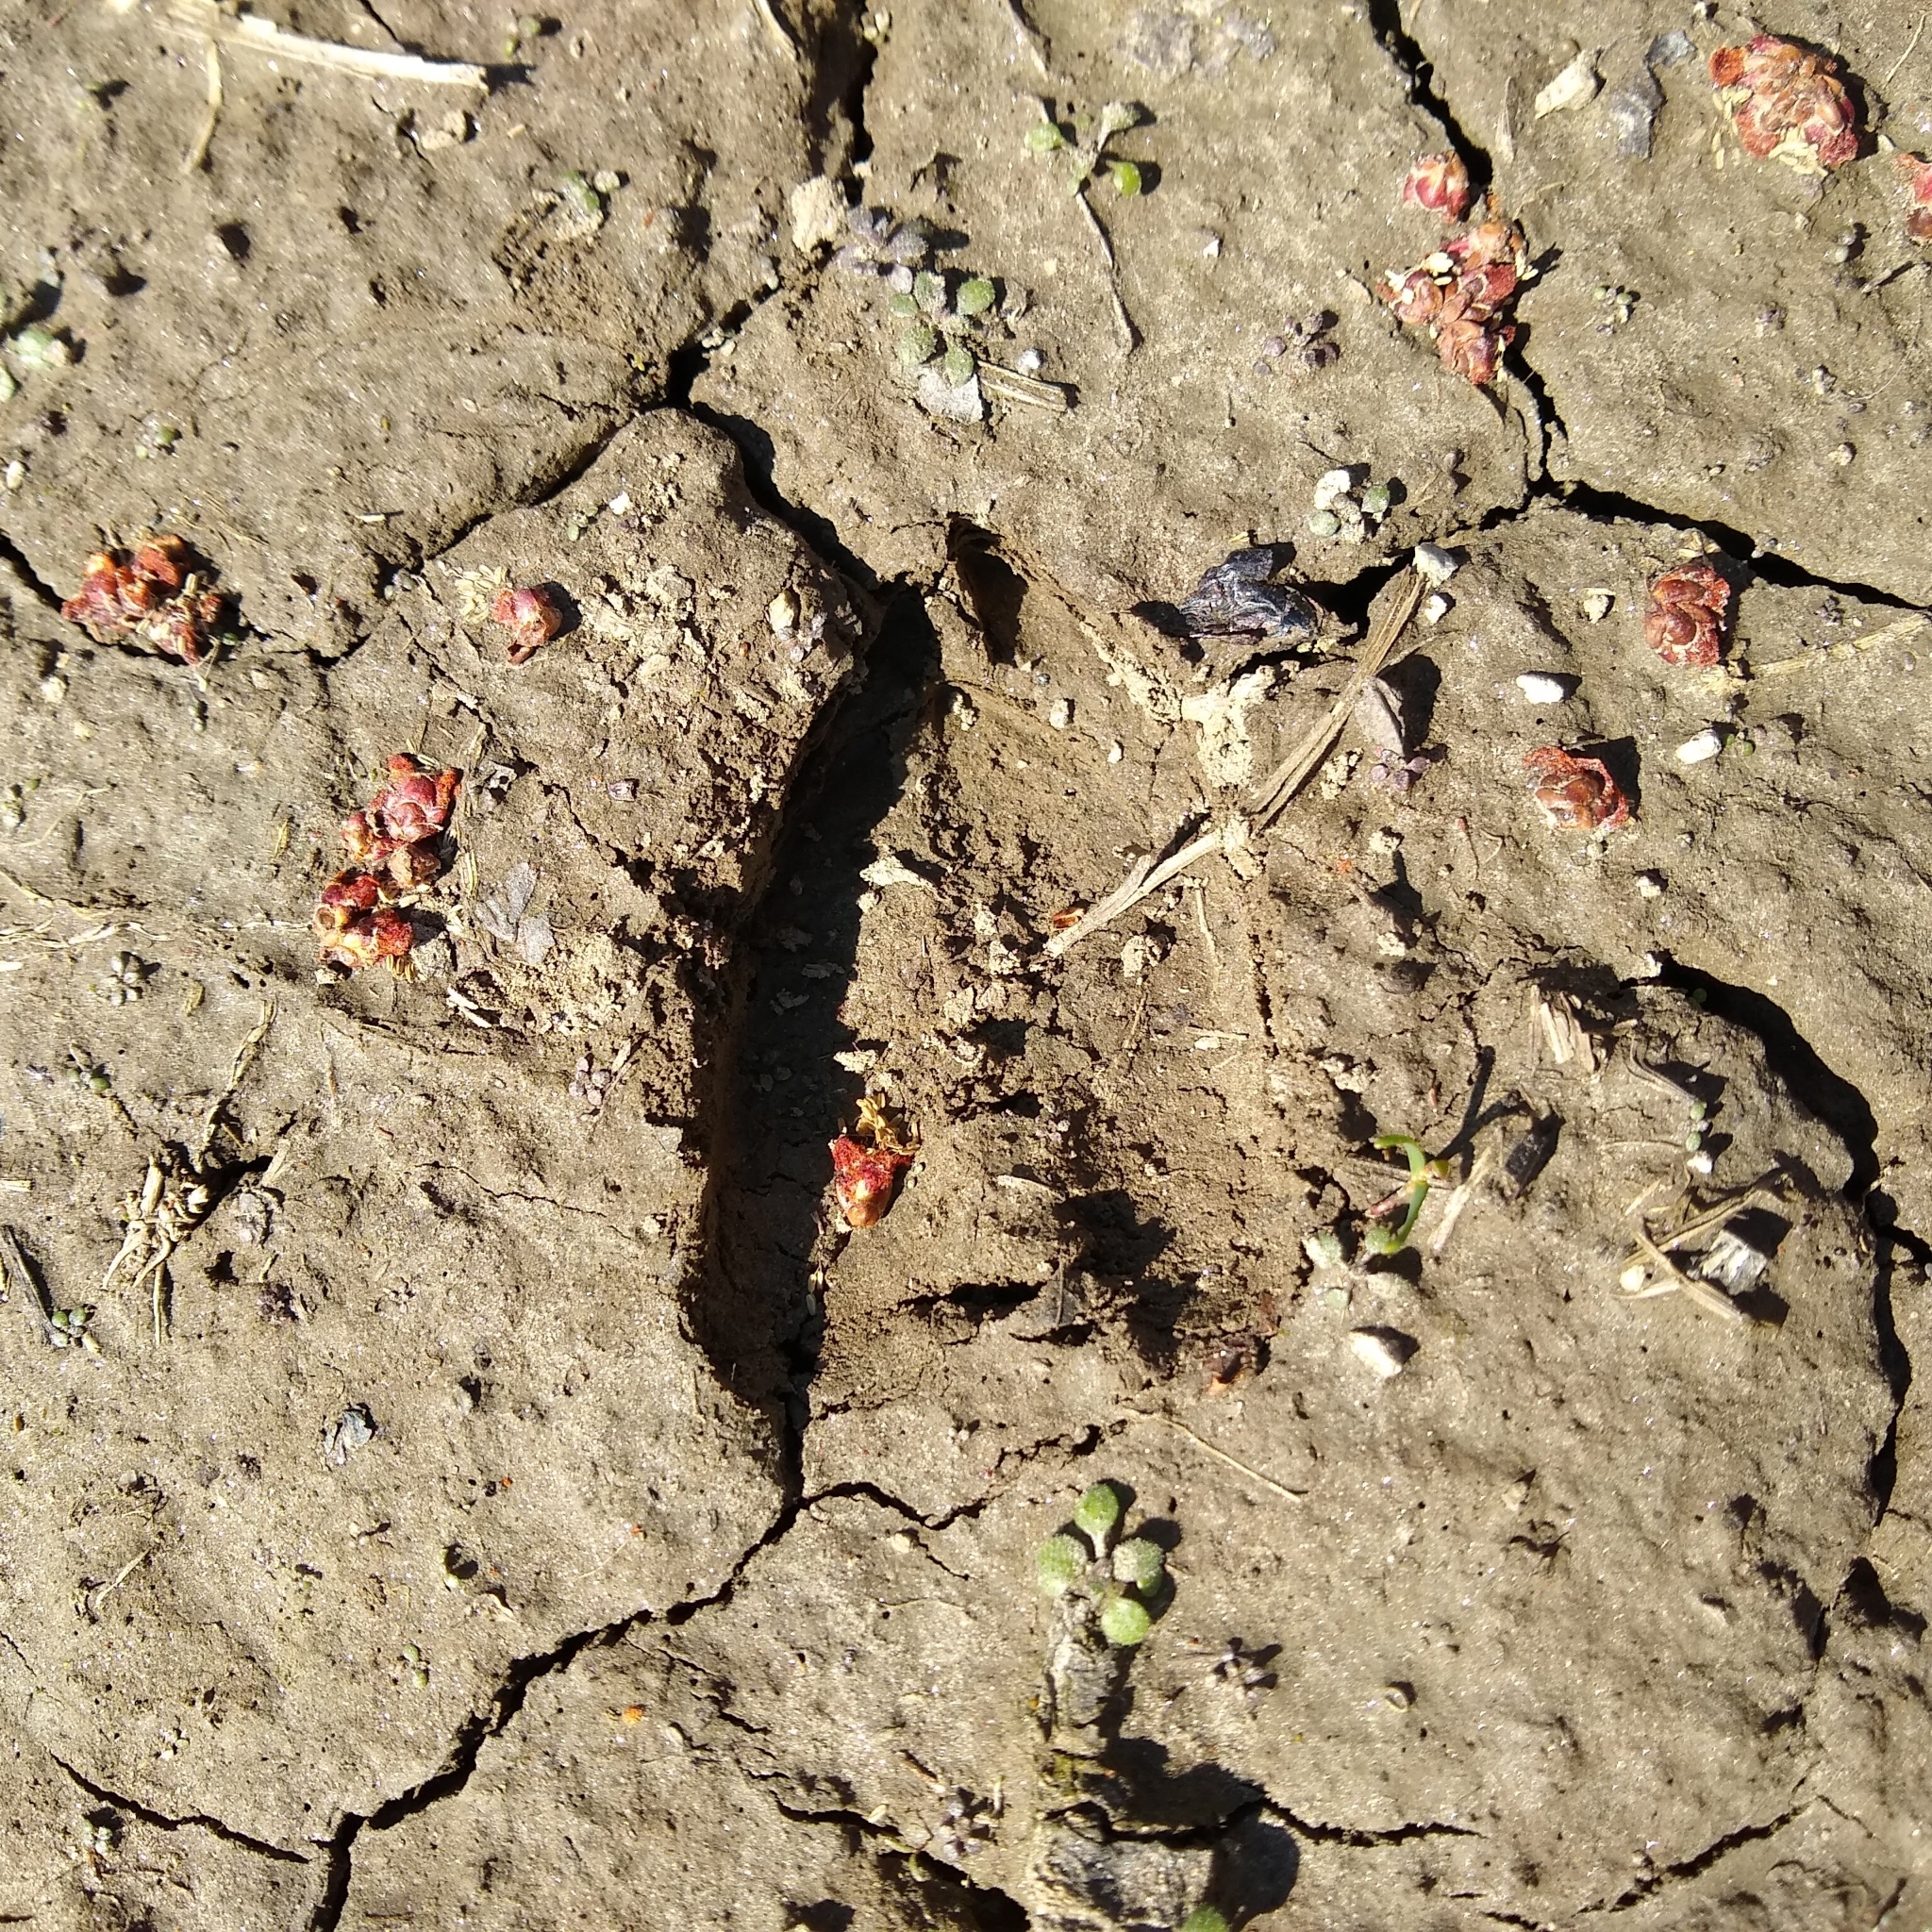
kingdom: Animalia
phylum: Chordata
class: Mammalia
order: Artiodactyla
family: Cervidae
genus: Odocoileus
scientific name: Odocoileus virginianus
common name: White-tailed deer
